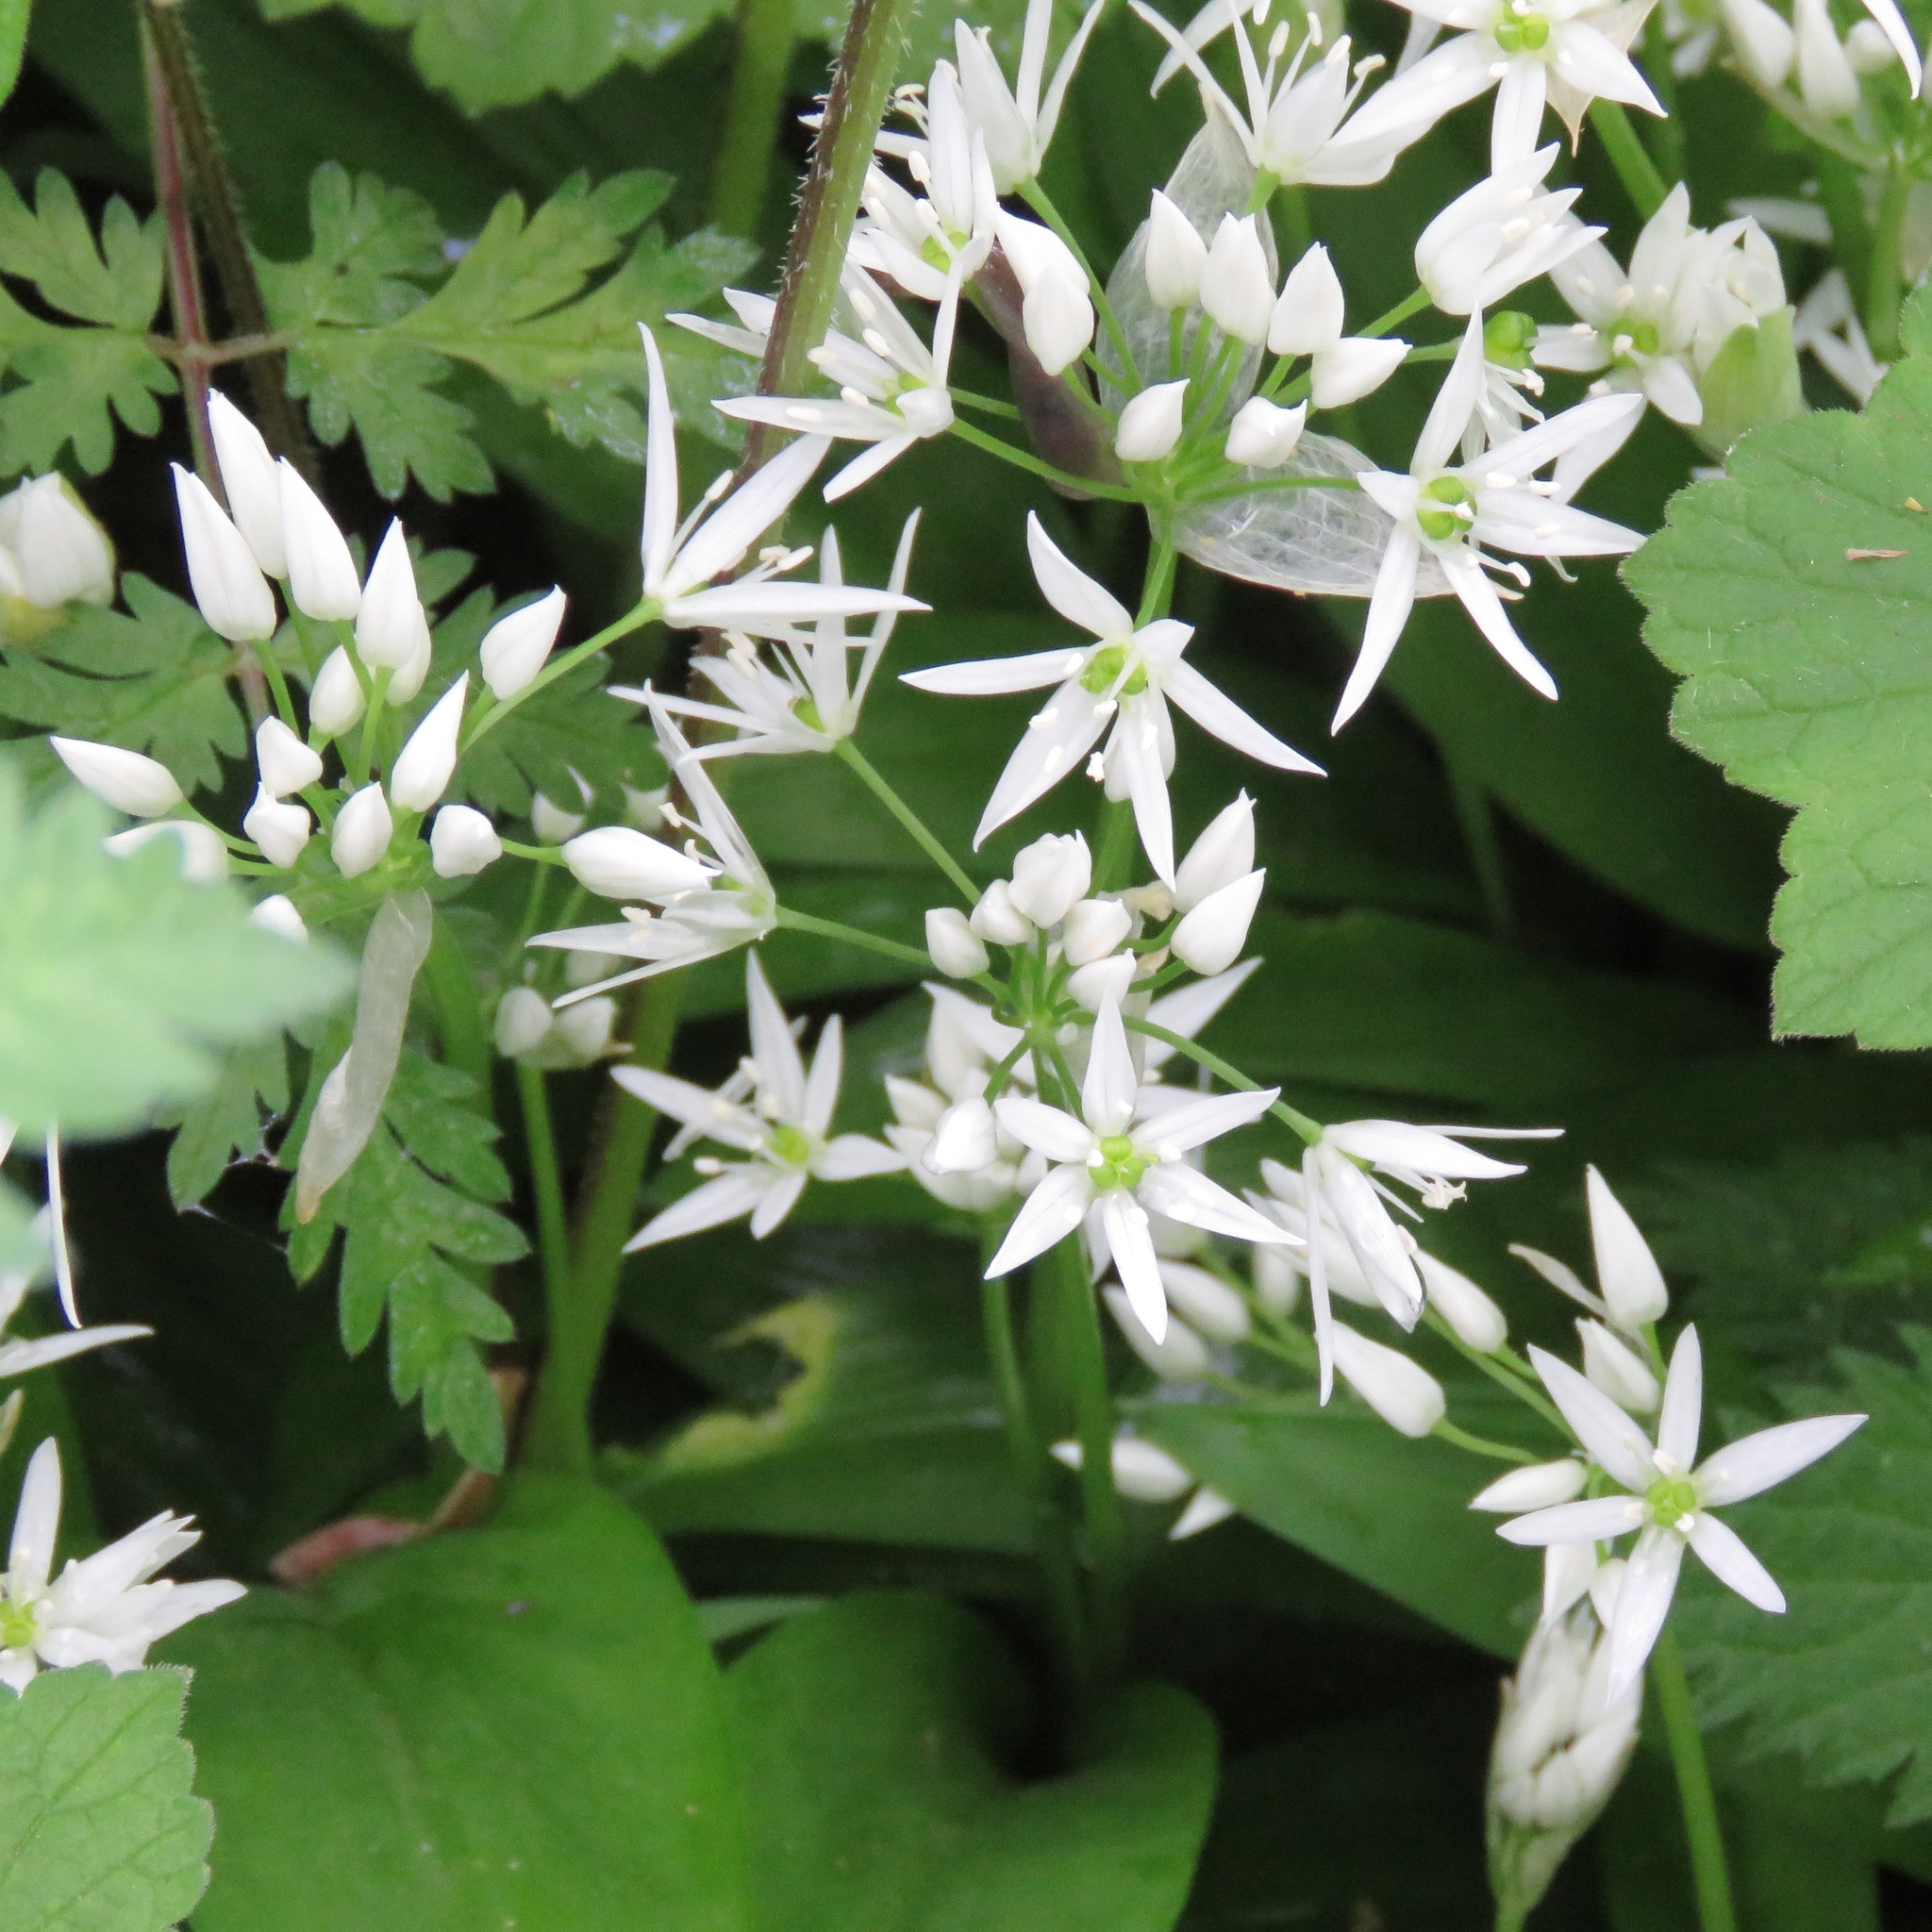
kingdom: Plantae
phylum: Tracheophyta
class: Liliopsida
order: Asparagales
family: Amaryllidaceae
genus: Allium
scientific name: Allium ursinum
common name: Ramsons
